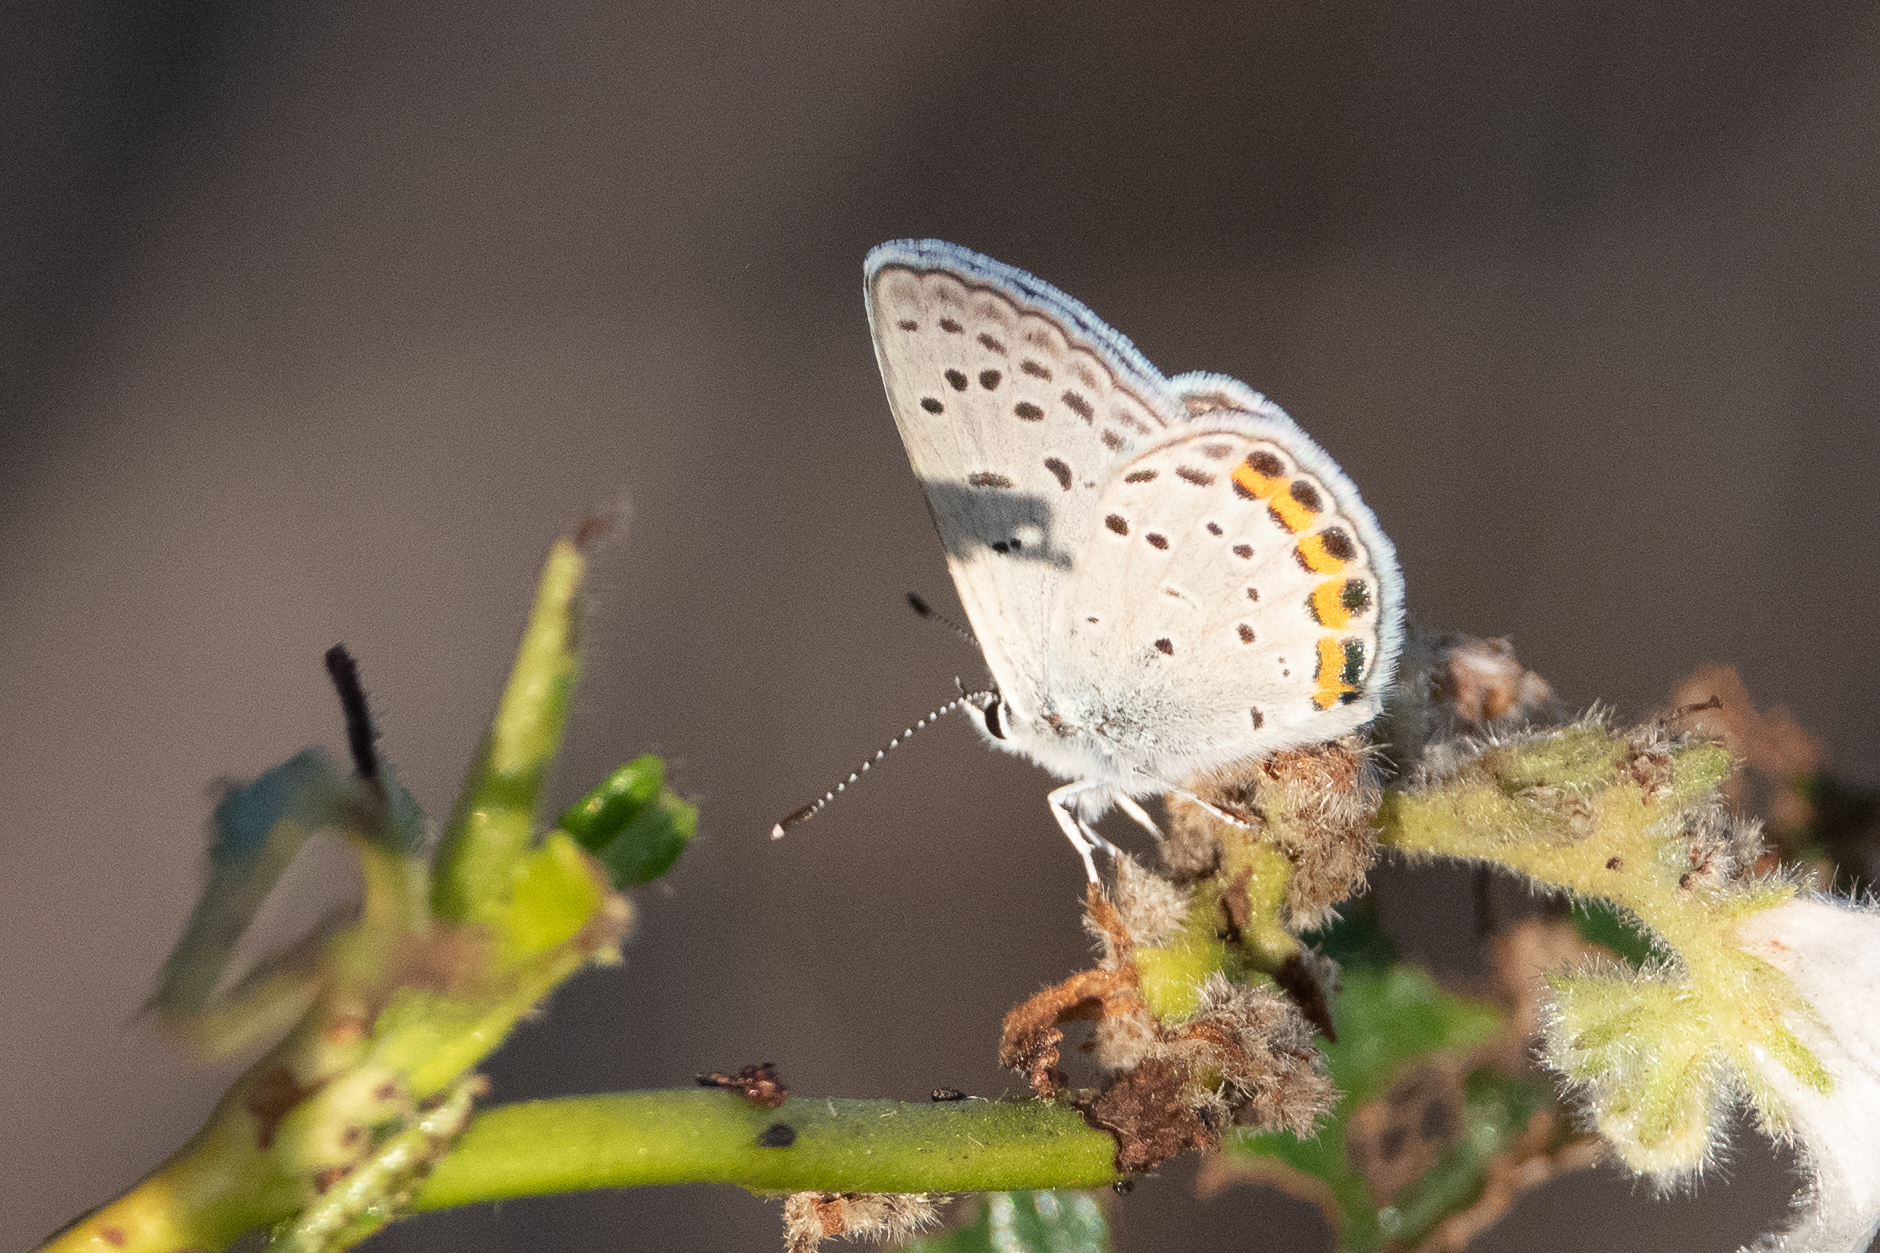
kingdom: Animalia
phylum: Arthropoda
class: Insecta
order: Lepidoptera
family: Lycaenidae
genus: Icaricia
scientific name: Icaricia acmon
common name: Acmon blue
